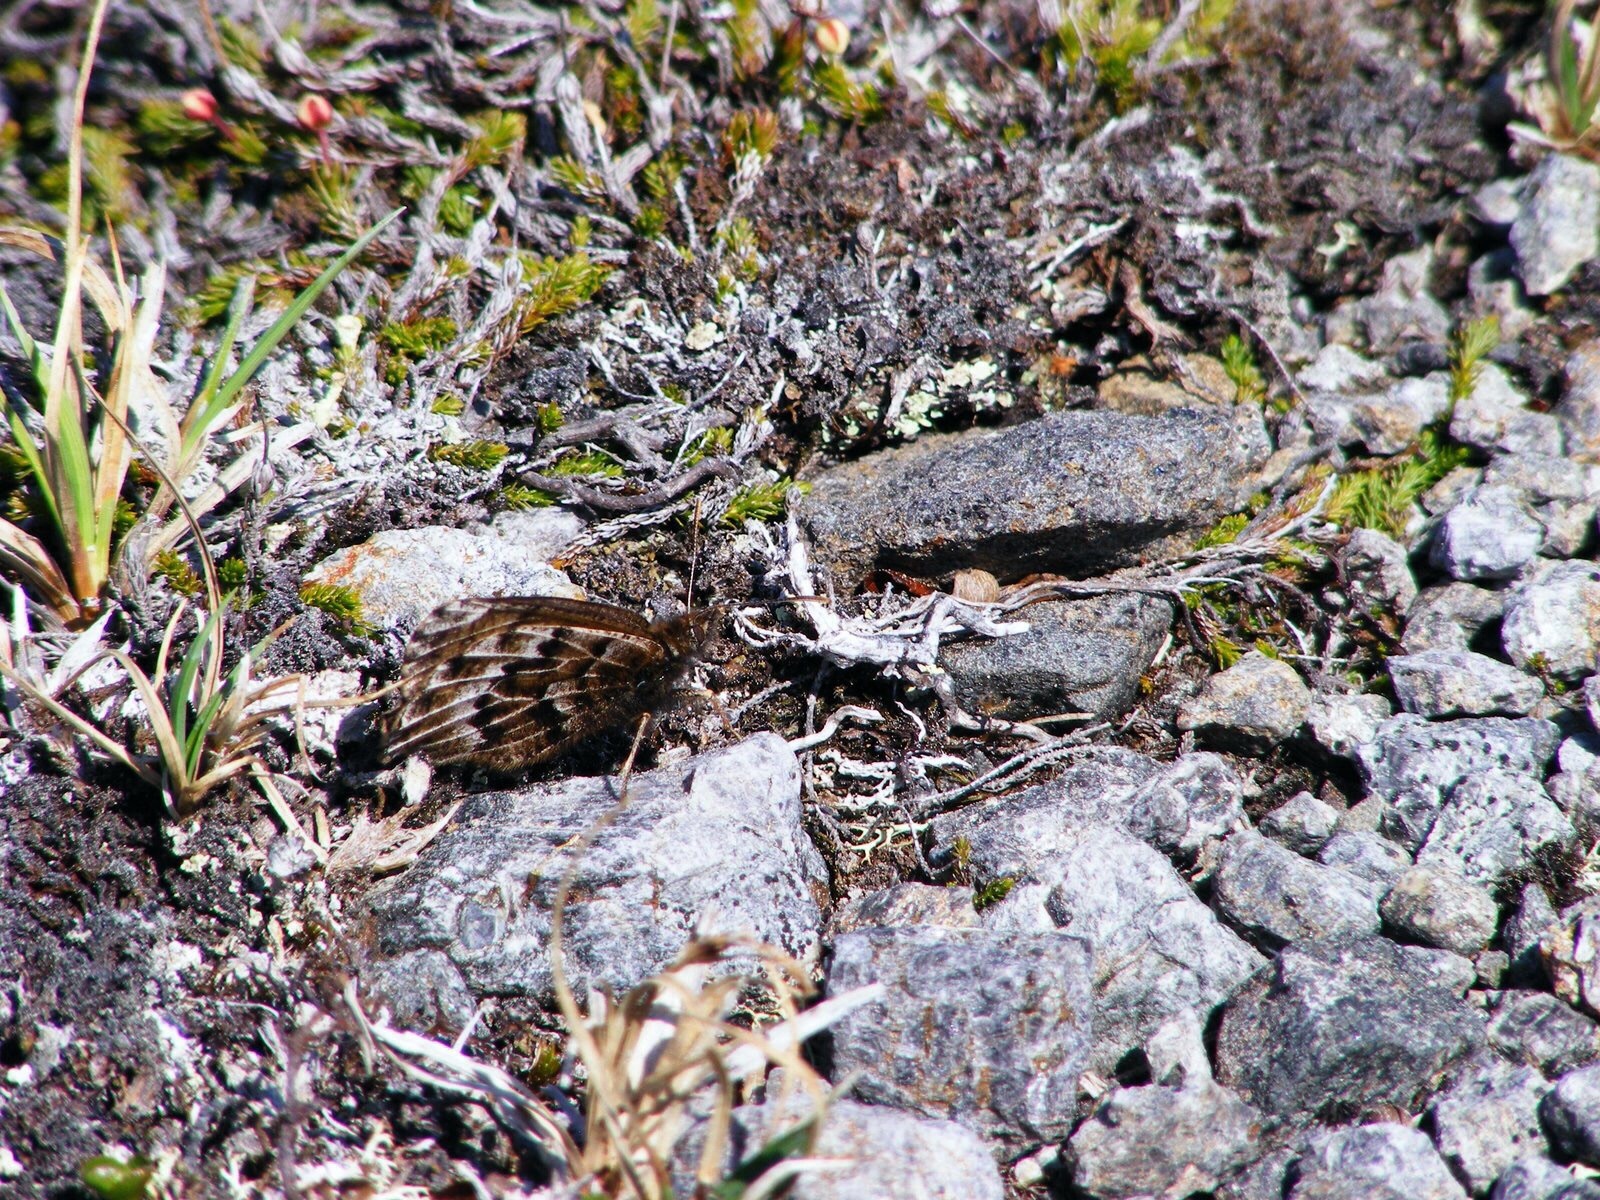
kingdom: Animalia
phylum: Arthropoda
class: Insecta
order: Lepidoptera
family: Nymphalidae
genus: Oeneis
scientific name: Oeneis bore
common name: Arctic grayling
